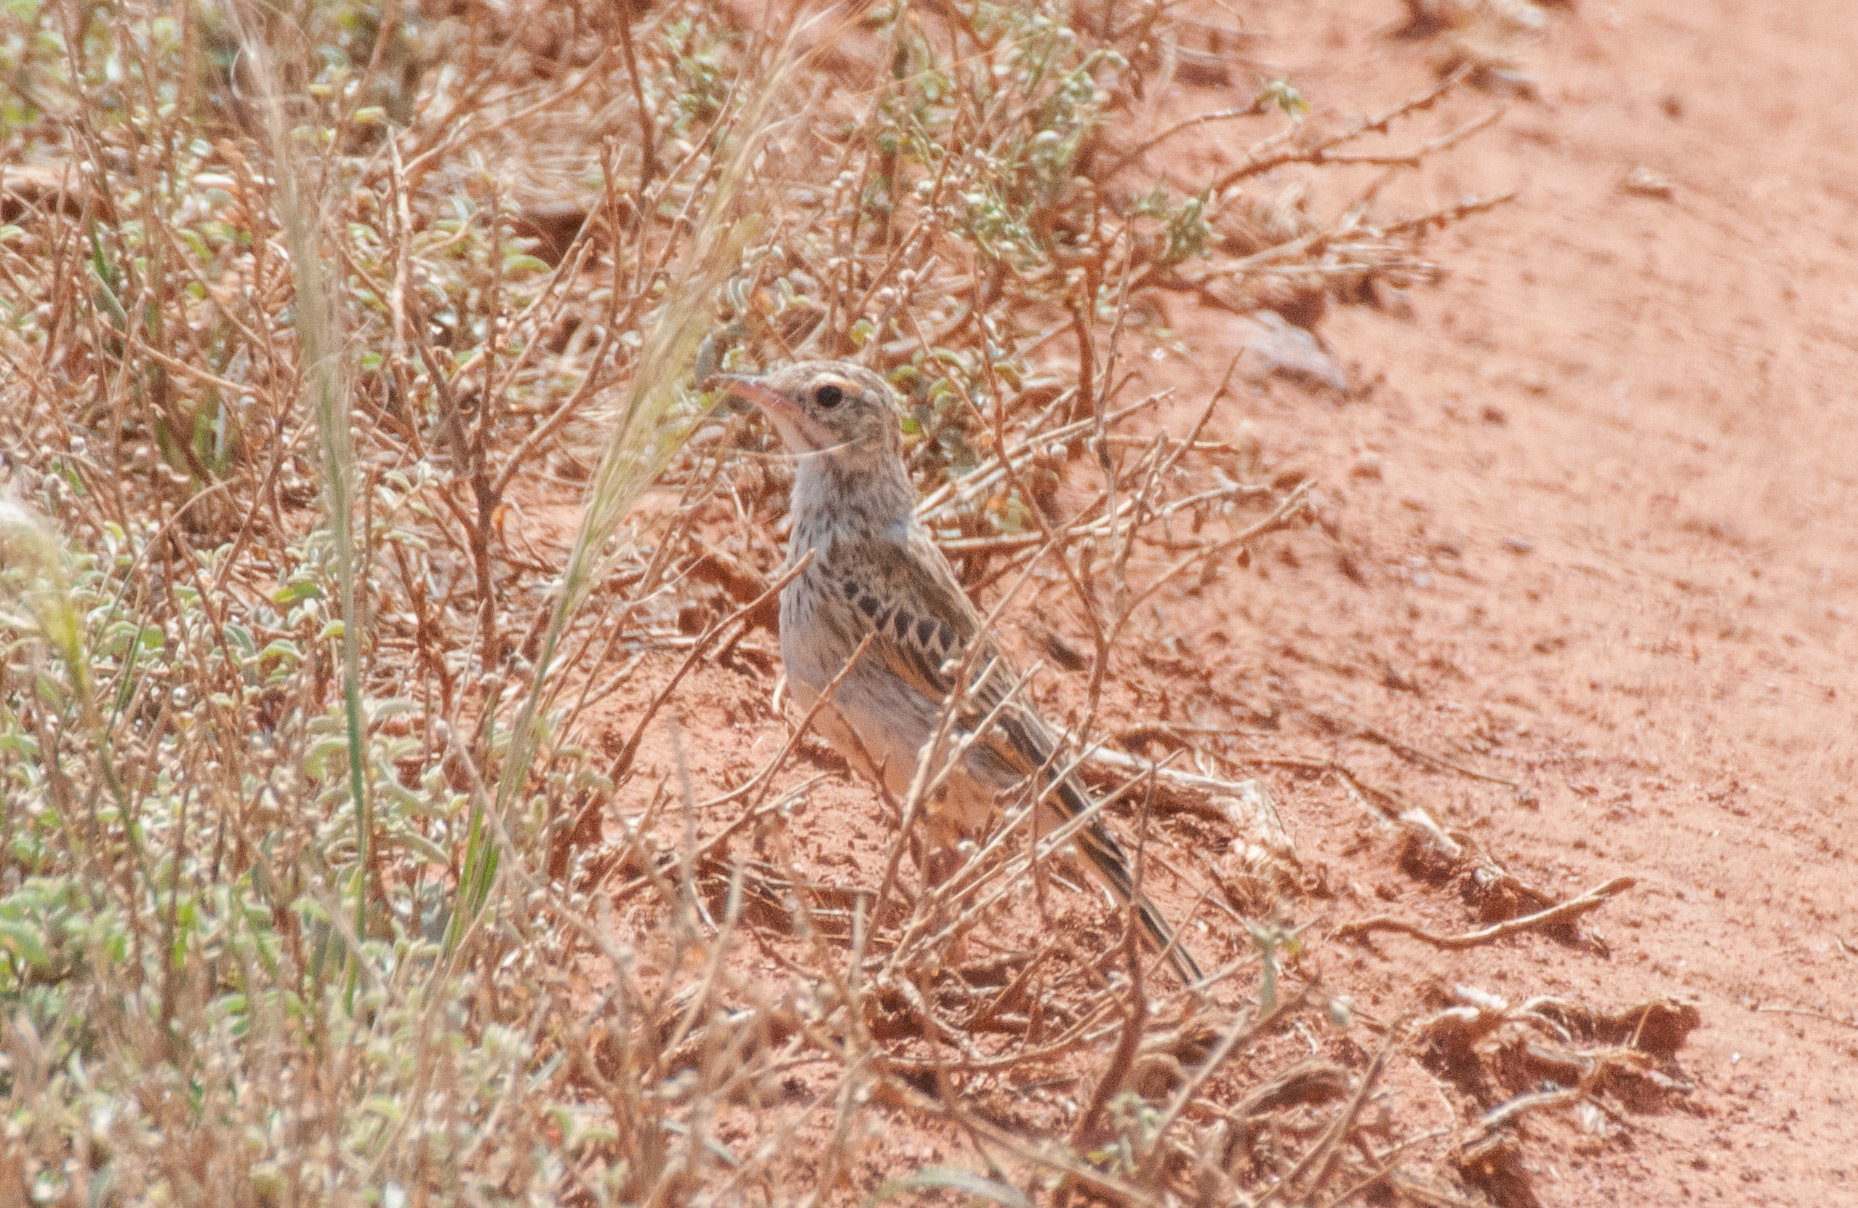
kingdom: Animalia
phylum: Chordata
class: Aves
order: Passeriformes
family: Motacillidae
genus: Anthus
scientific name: Anthus australis
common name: Australian pipit
